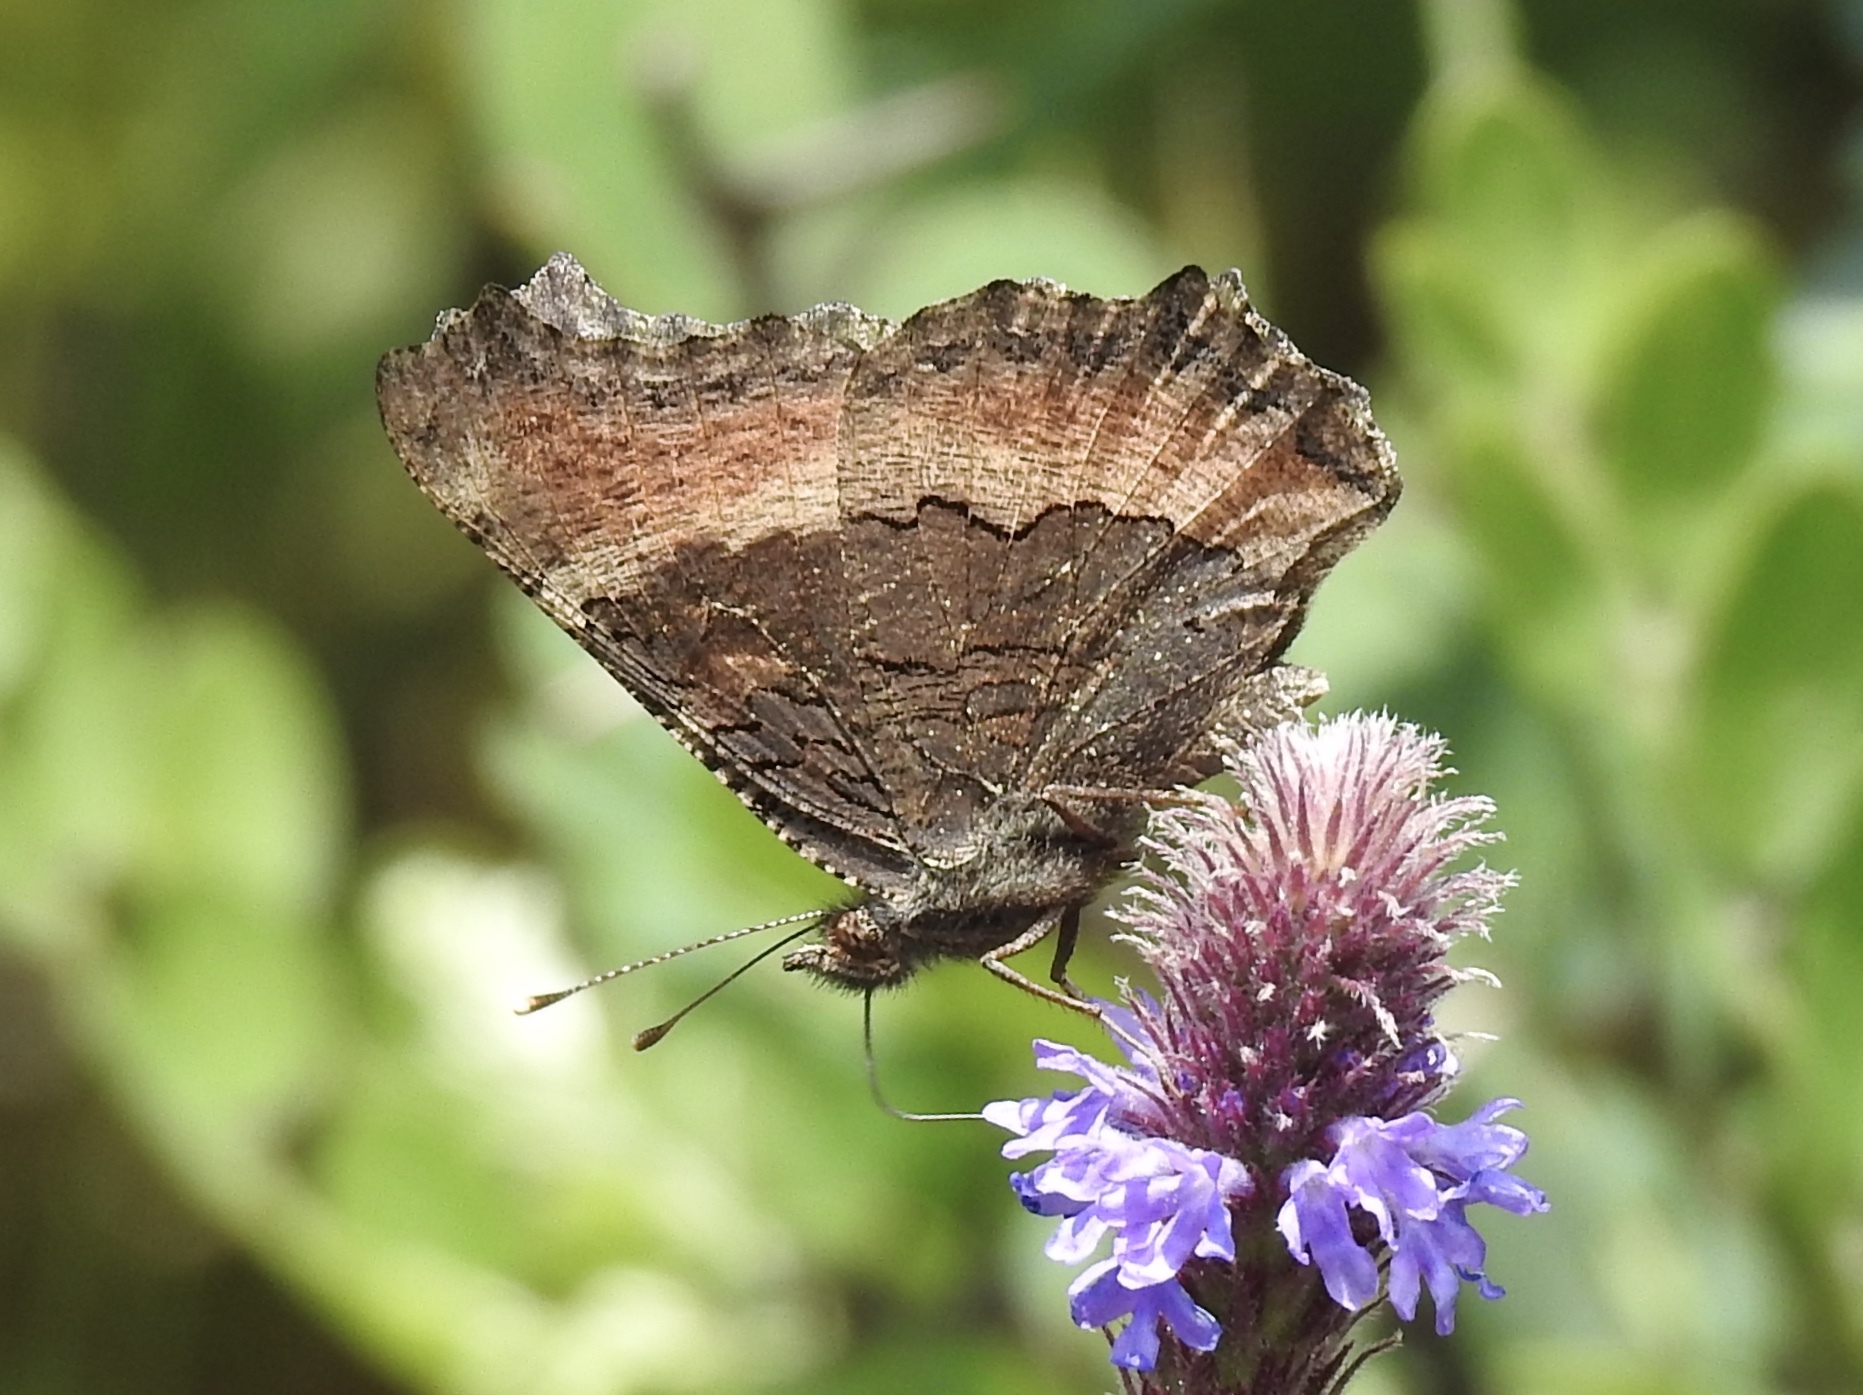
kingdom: Animalia
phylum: Arthropoda
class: Insecta
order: Lepidoptera
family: Nymphalidae
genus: Aglais
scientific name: Aglais milberti
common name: Milbert's tortoiseshell
